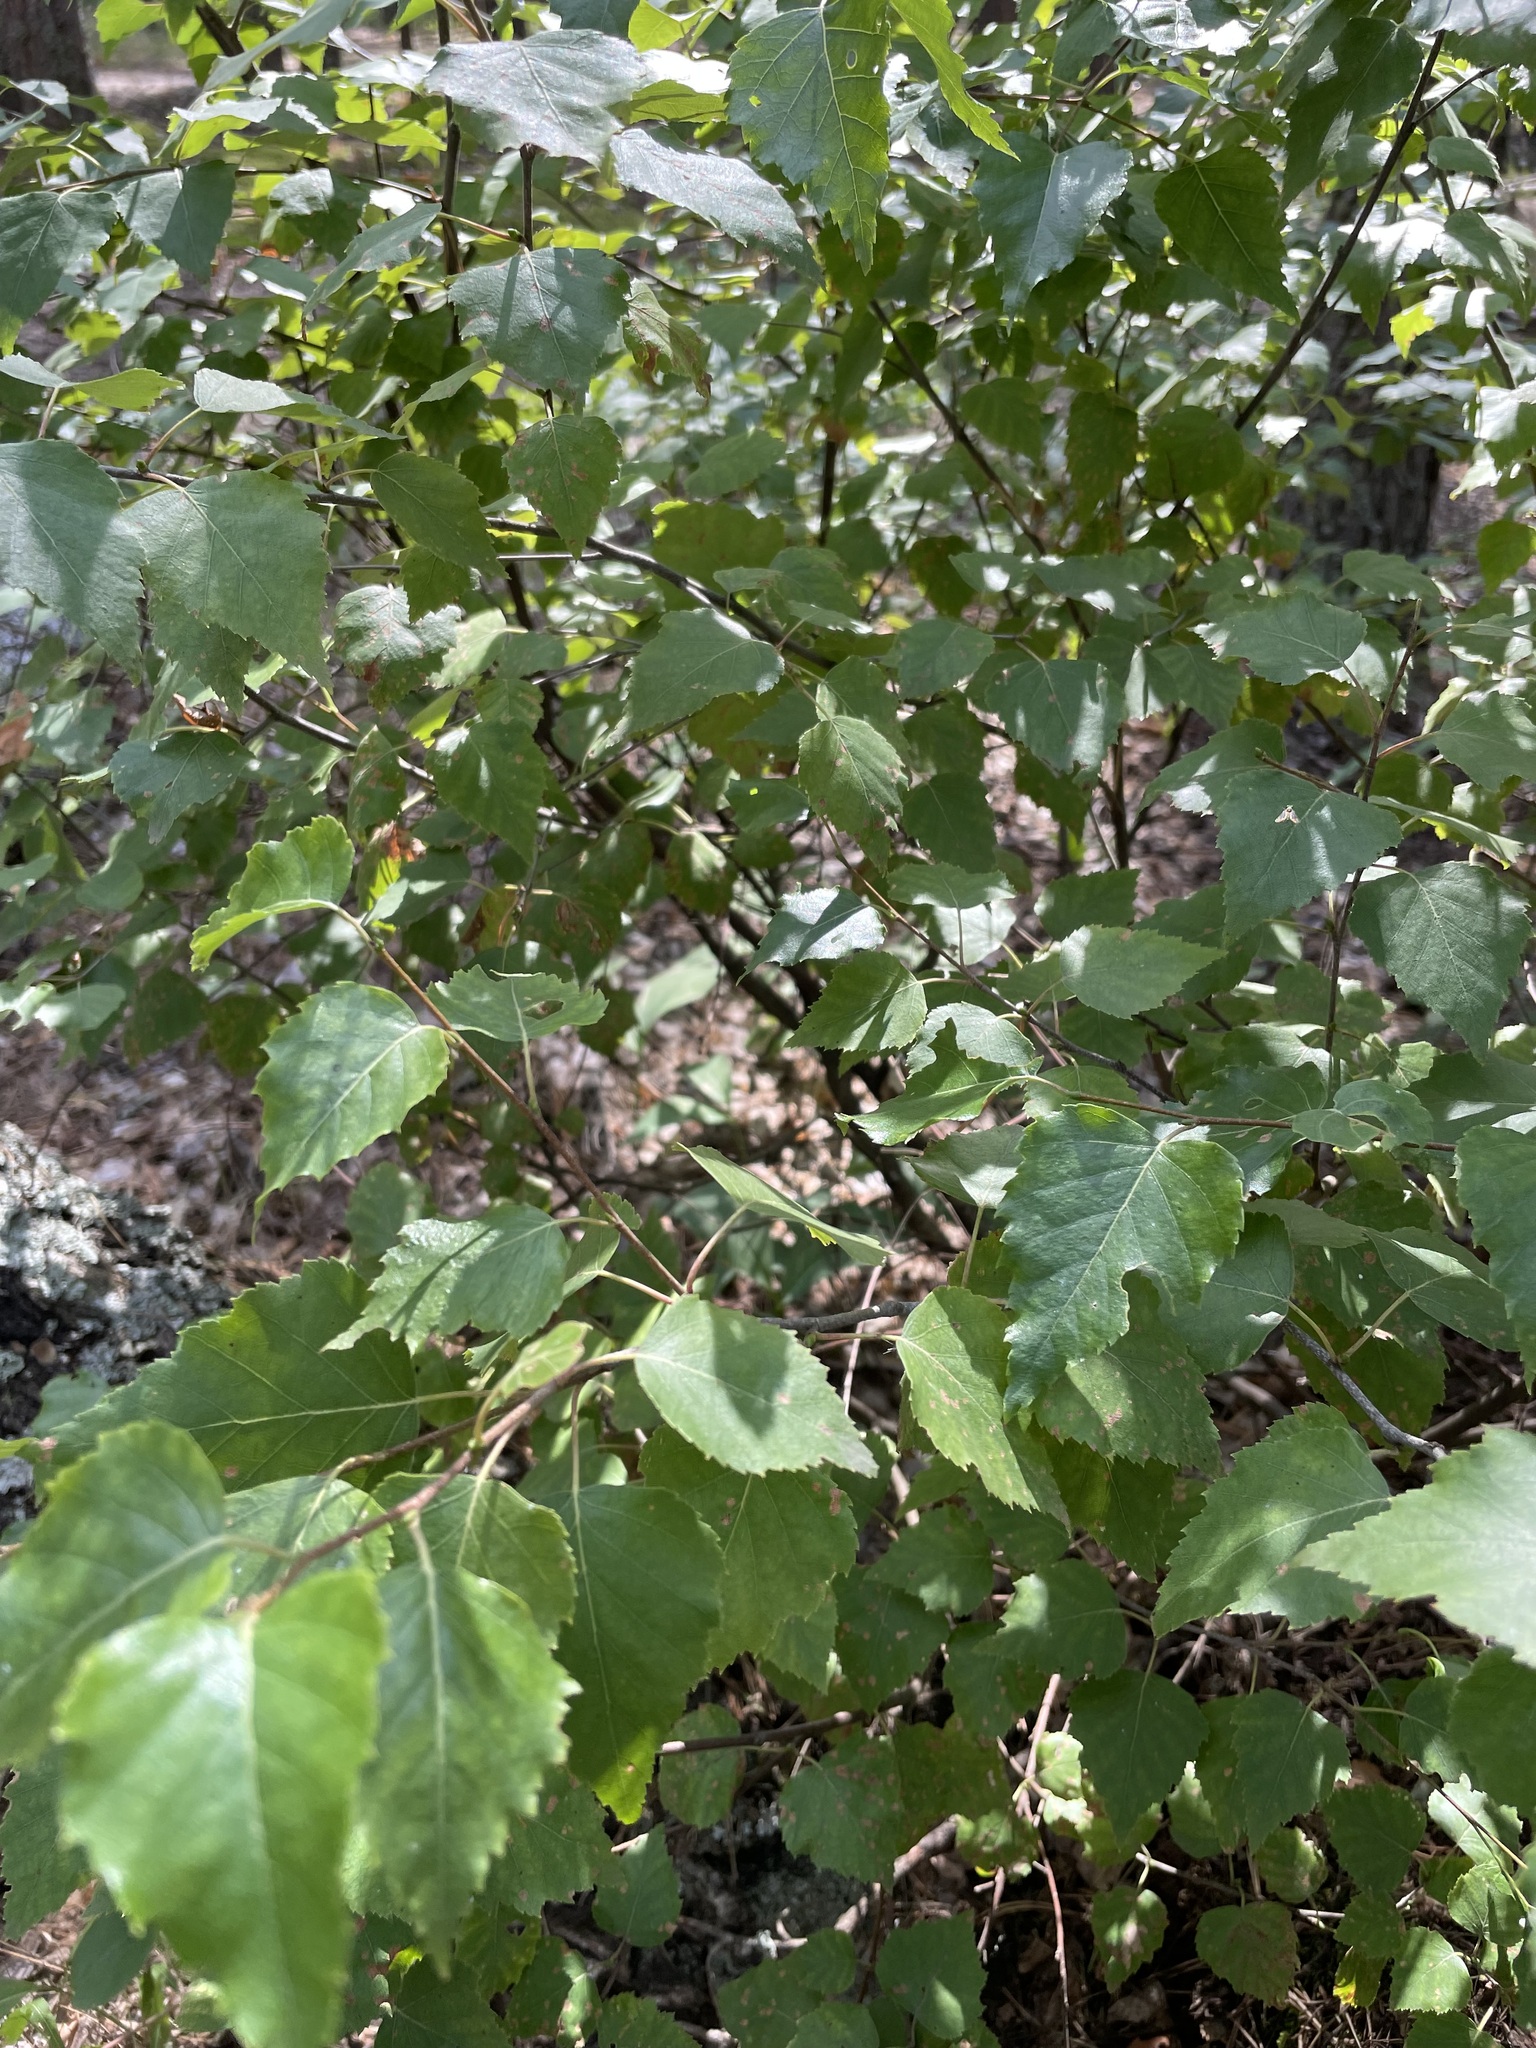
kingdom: Plantae
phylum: Tracheophyta
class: Magnoliopsida
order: Fagales
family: Betulaceae
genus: Betula
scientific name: Betula pendula
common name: Silver birch
